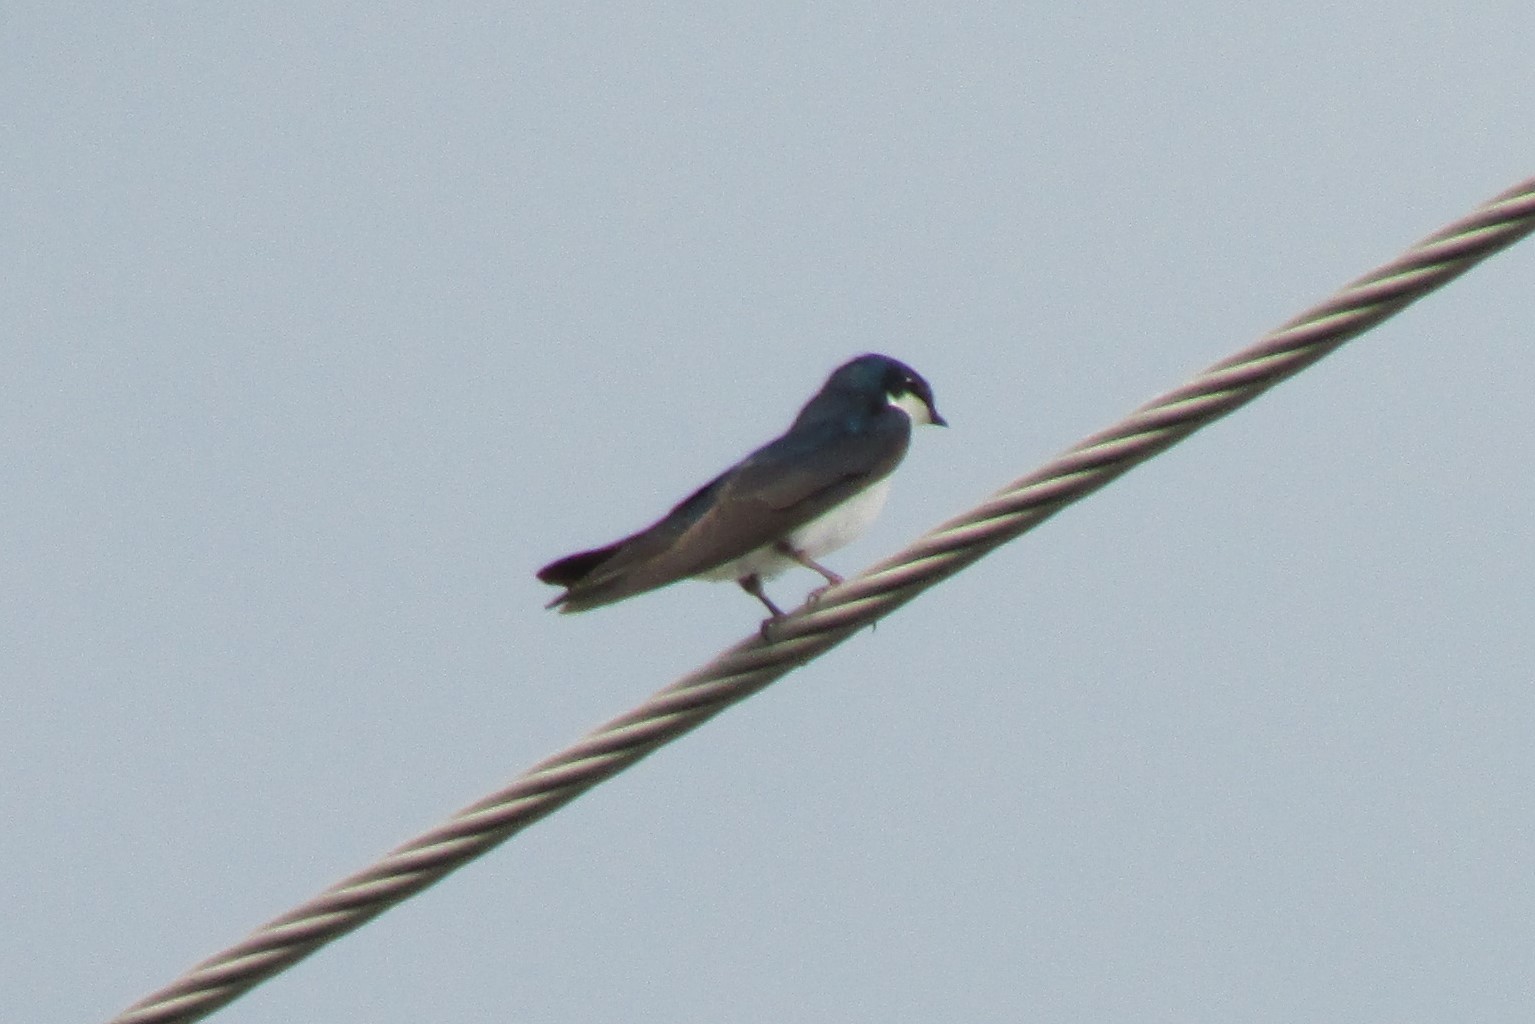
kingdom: Animalia
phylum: Chordata
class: Aves
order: Passeriformes
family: Hirundinidae
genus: Tachycineta
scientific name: Tachycineta bicolor
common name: Tree swallow
